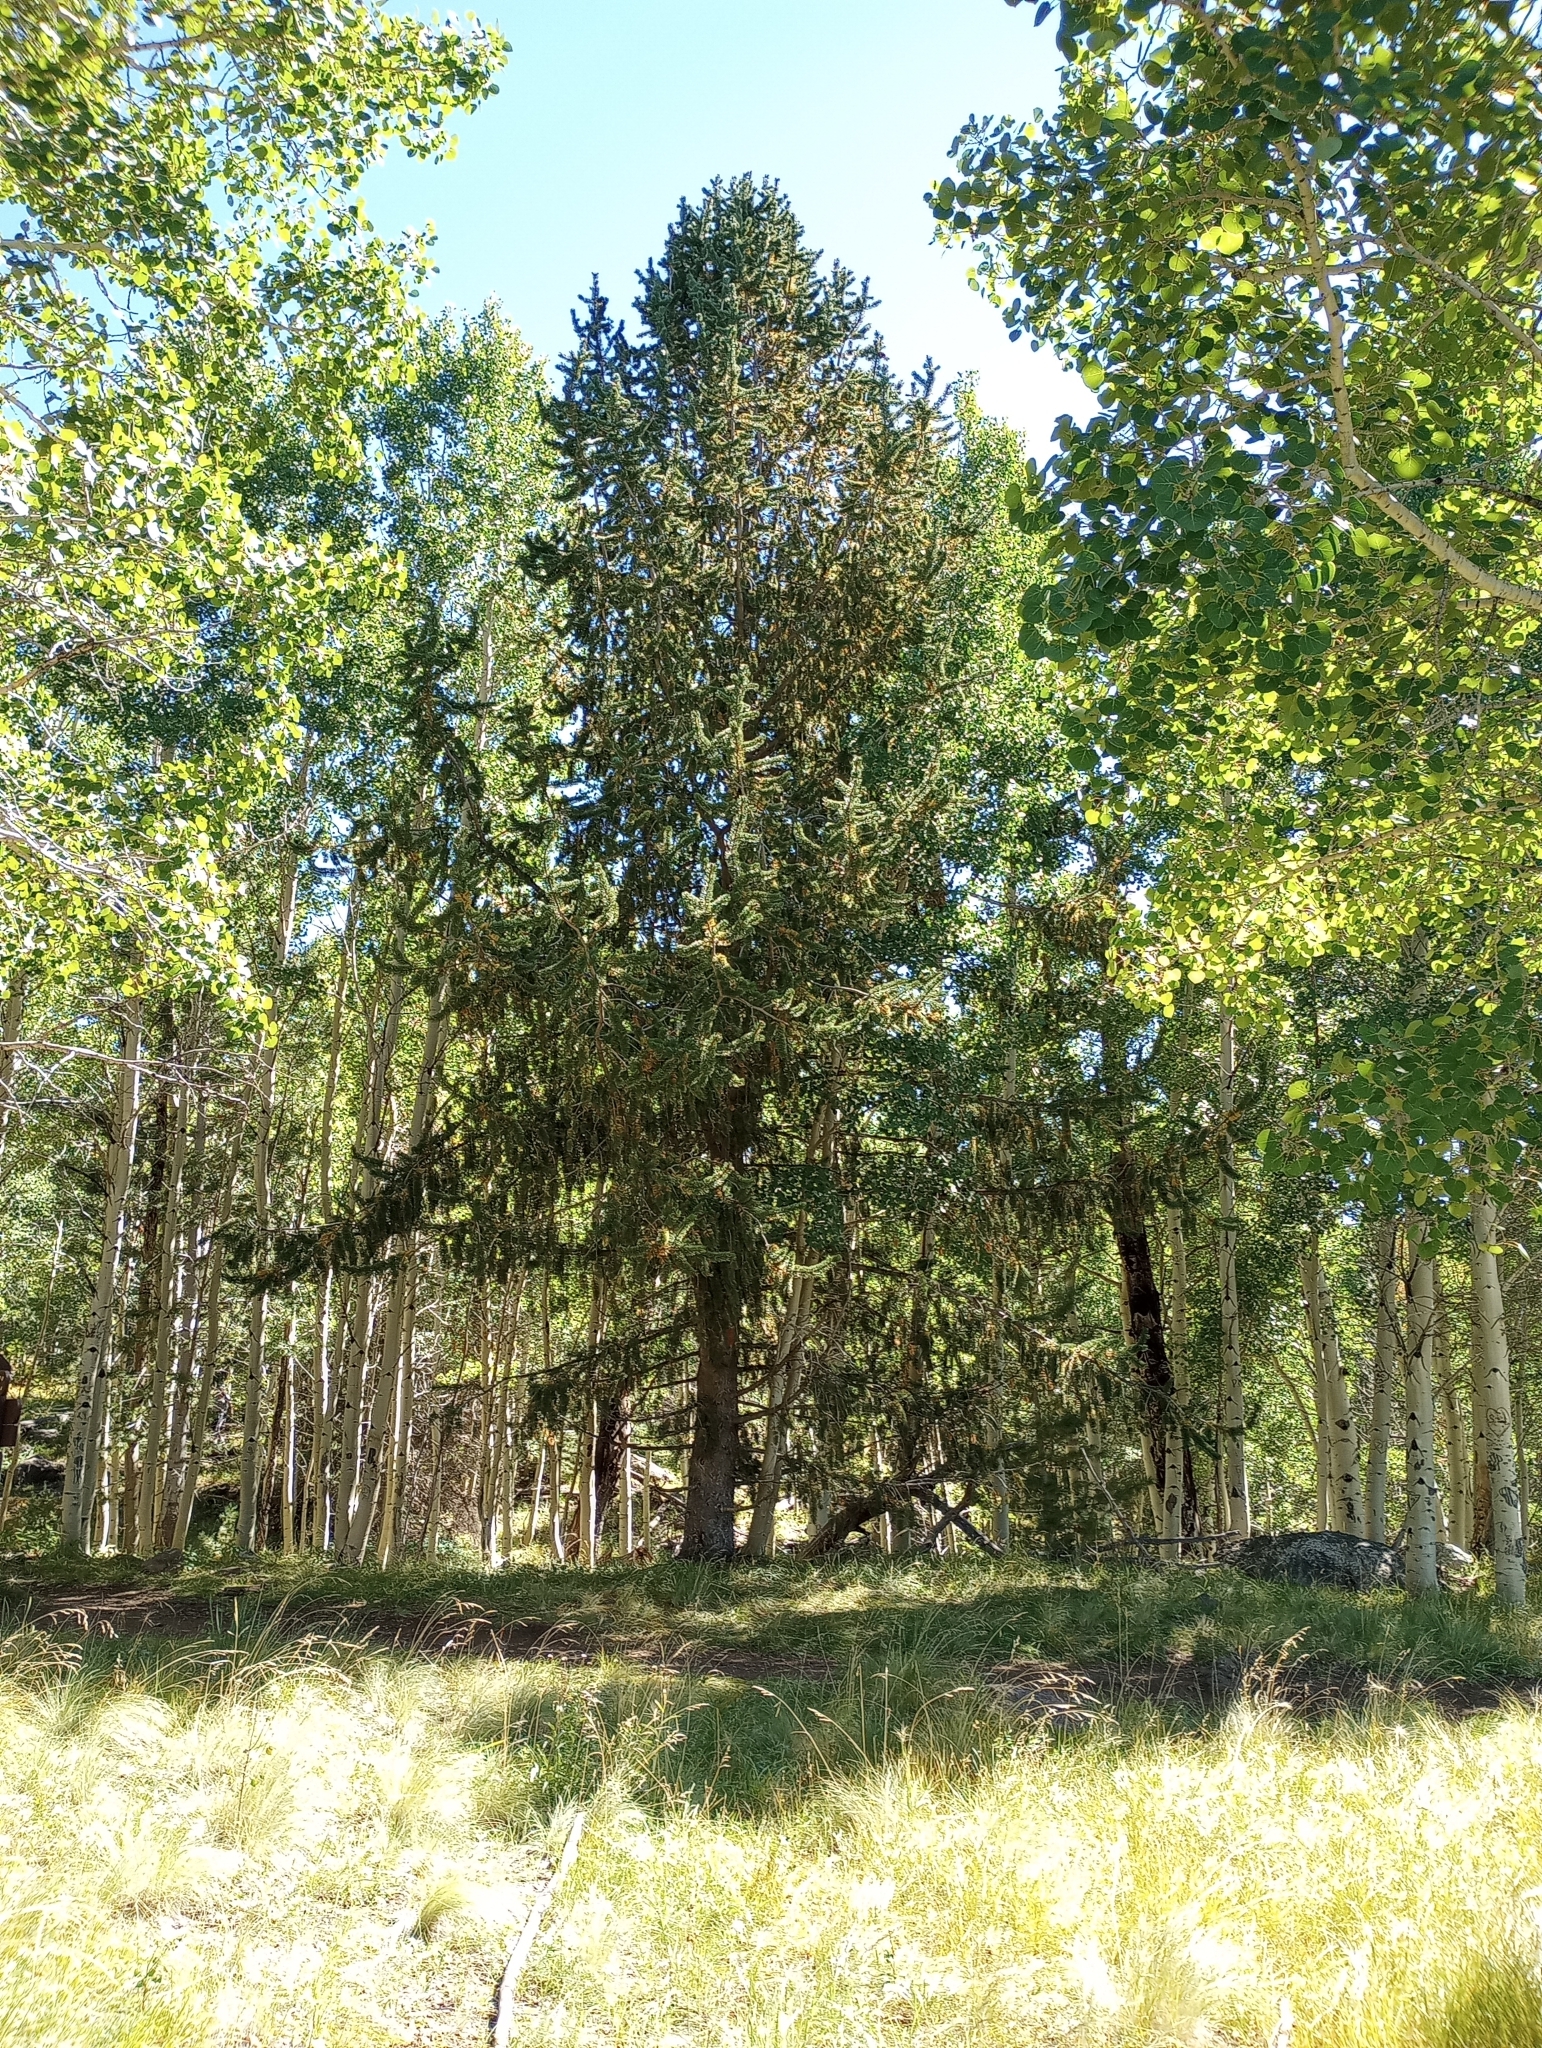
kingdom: Plantae
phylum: Tracheophyta
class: Pinopsida
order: Pinales
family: Pinaceae
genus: Pinus
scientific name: Pinus aristata
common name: Colorado bristlecone pine
